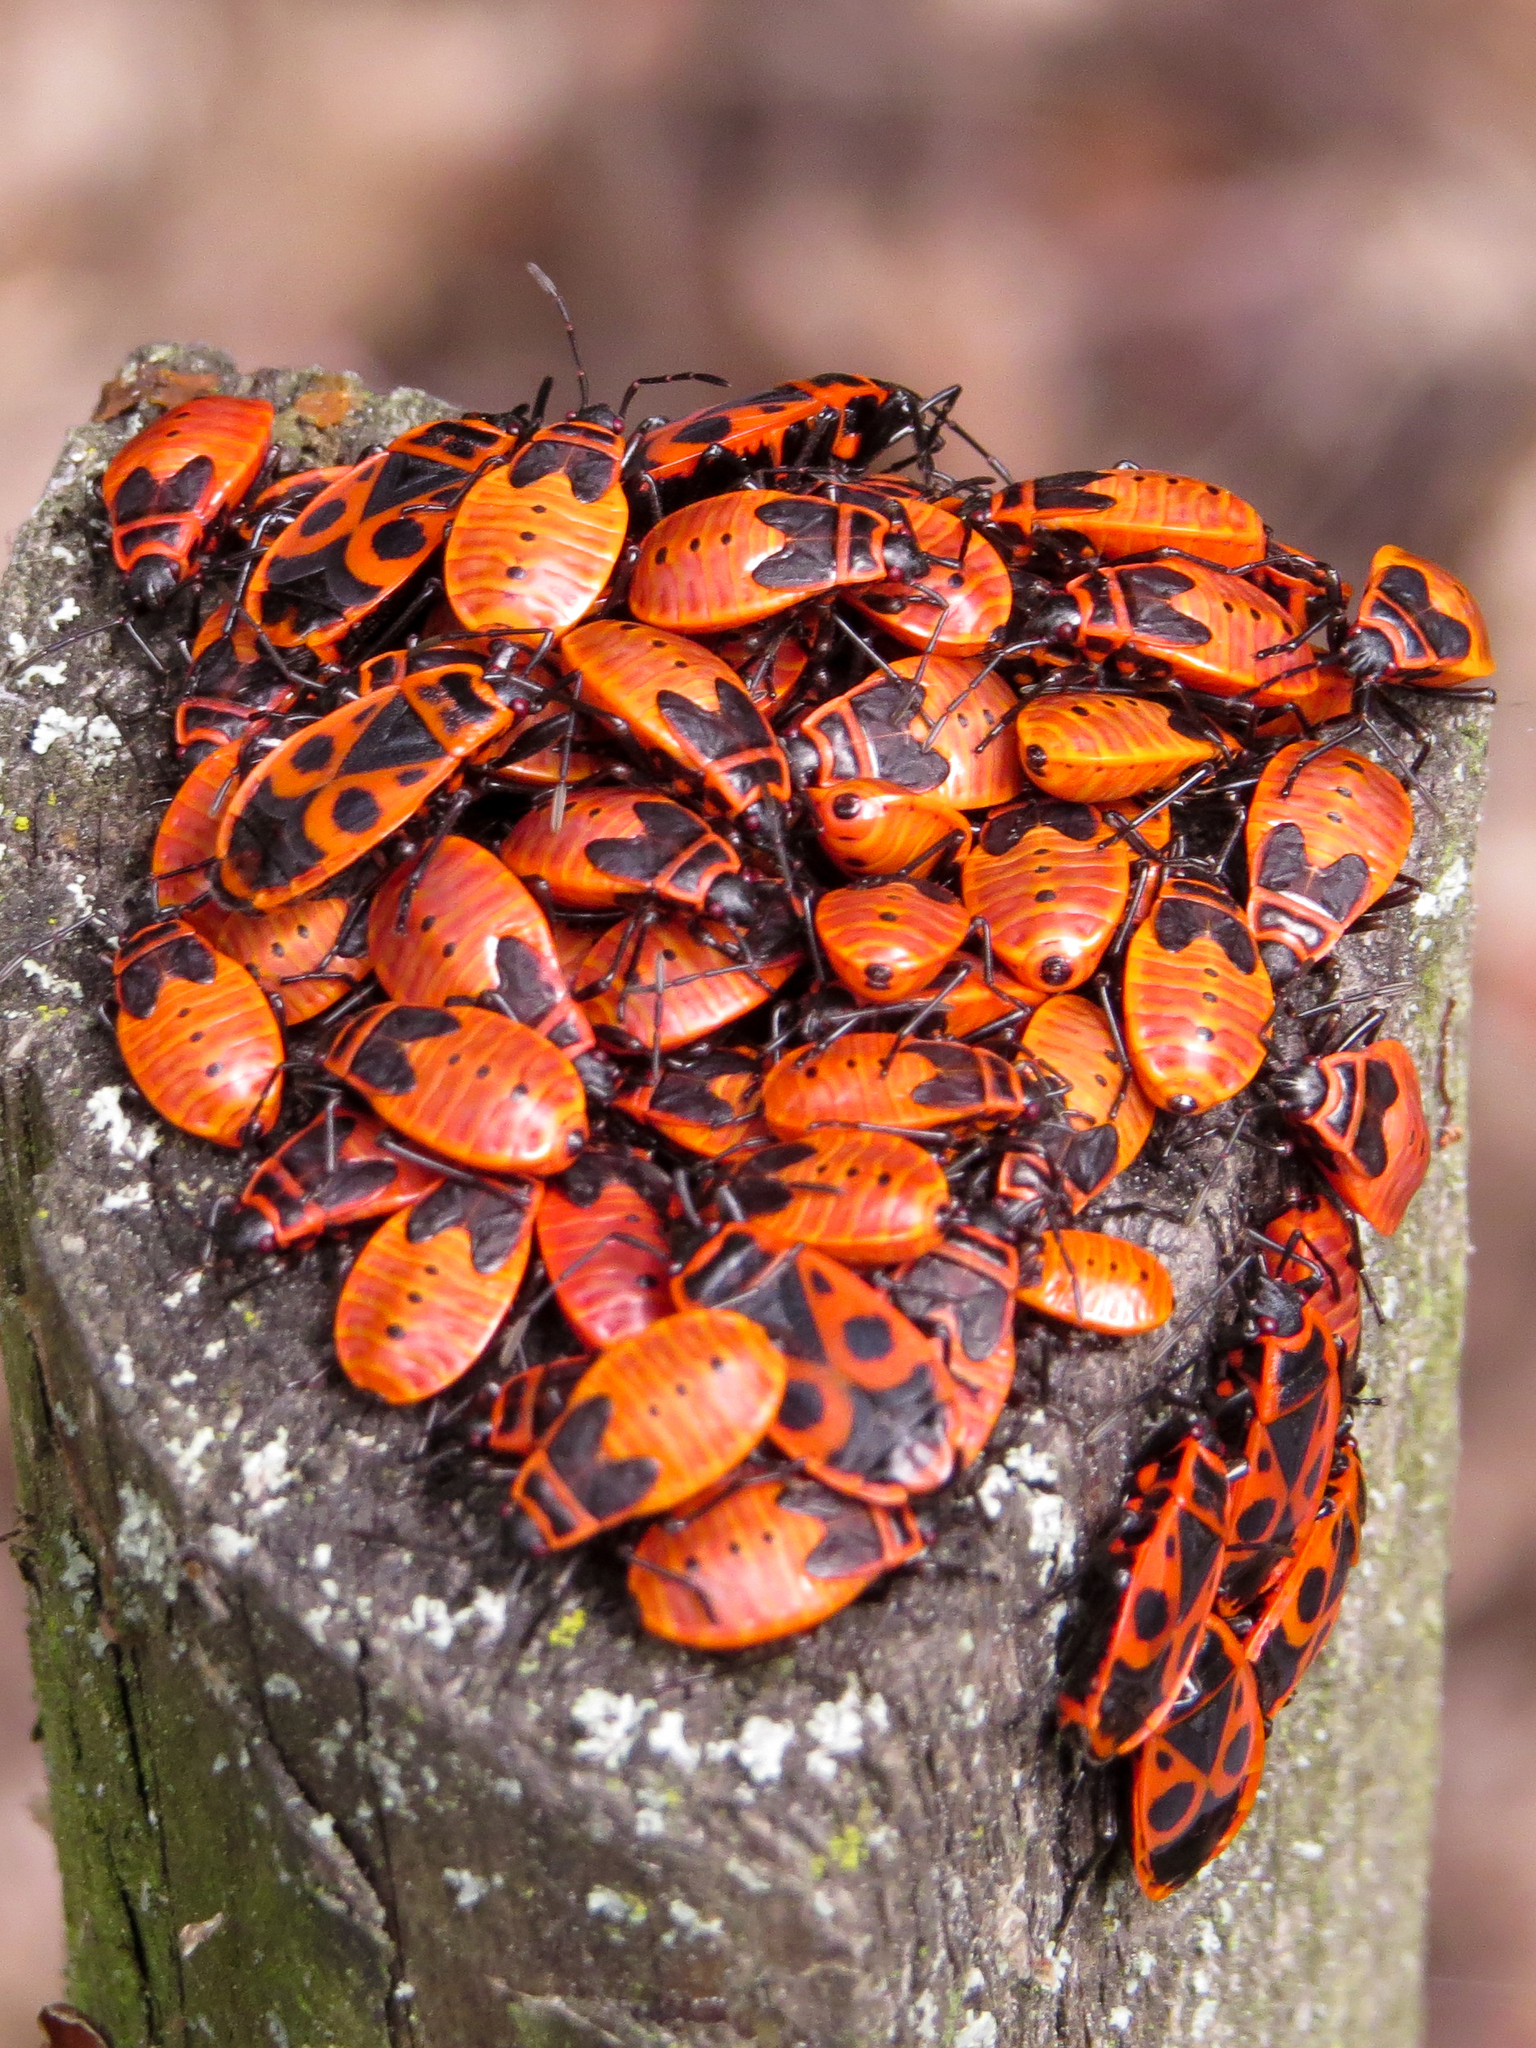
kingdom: Animalia
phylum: Arthropoda
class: Insecta
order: Hemiptera
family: Pyrrhocoridae
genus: Pyrrhocoris
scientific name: Pyrrhocoris apterus
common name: Firebug
